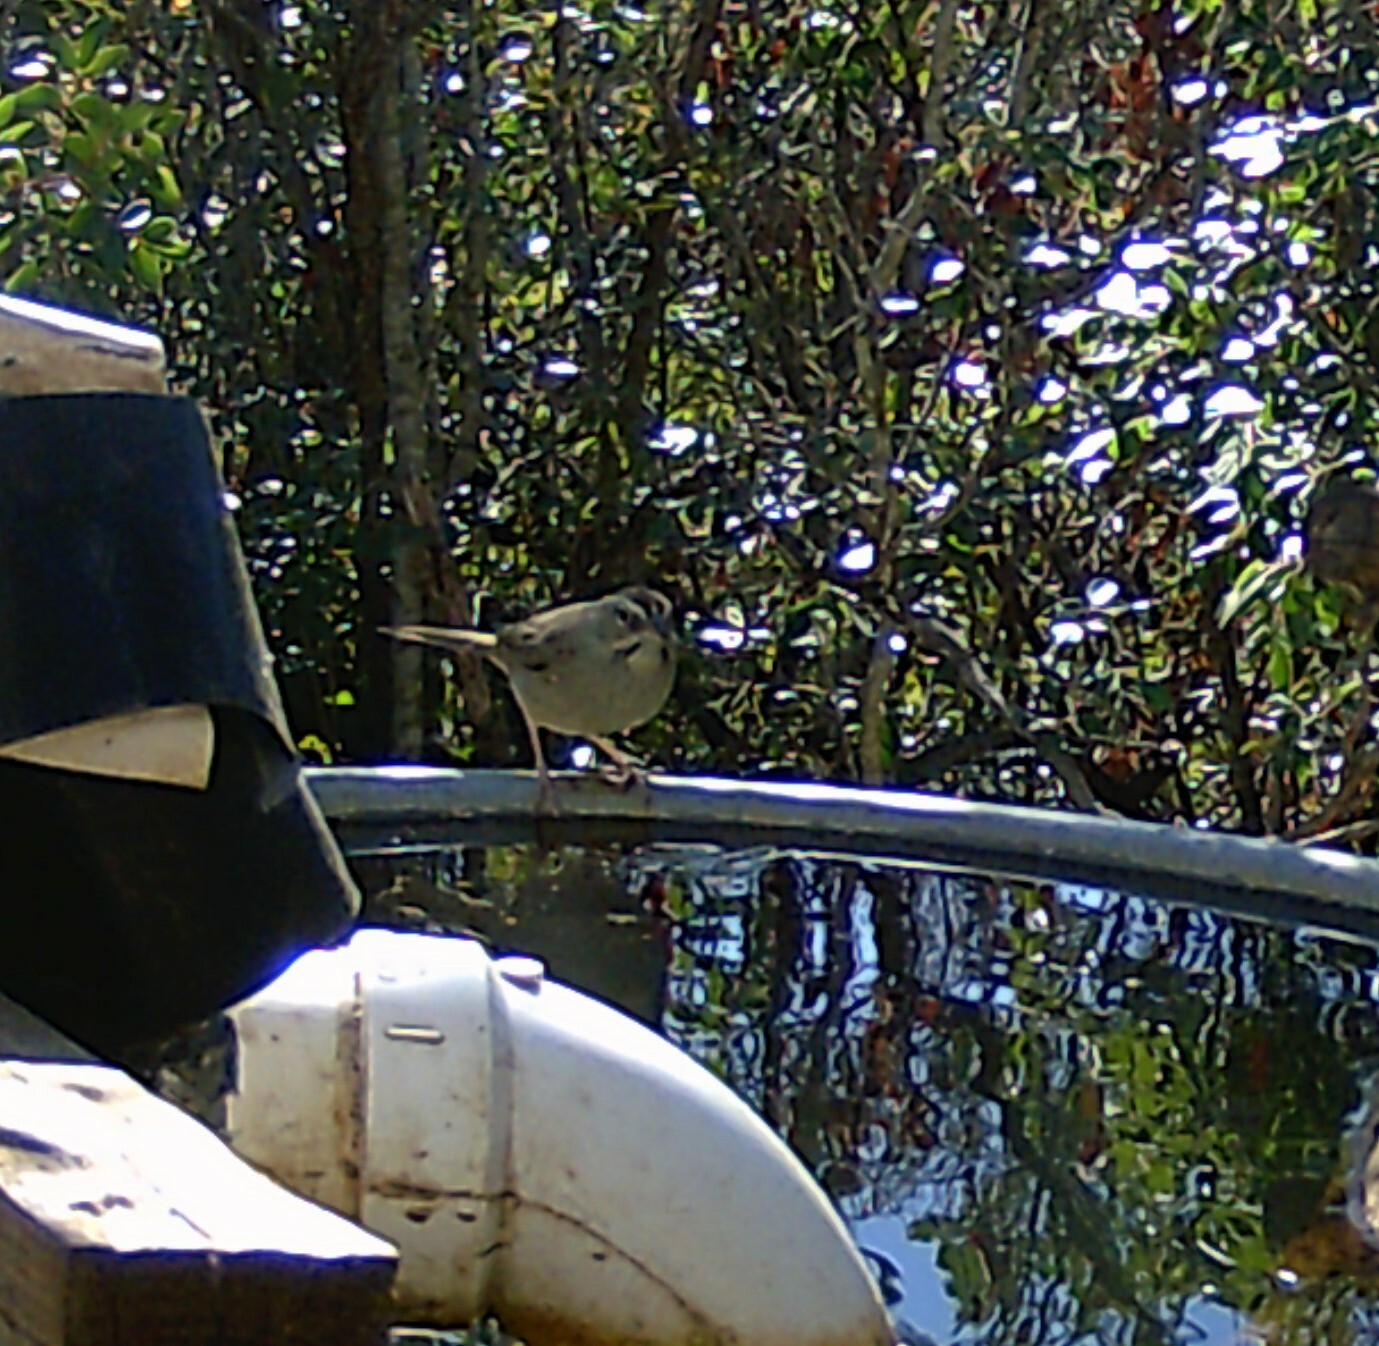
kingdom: Animalia
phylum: Chordata
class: Aves
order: Passeriformes
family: Passerellidae
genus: Aimophila
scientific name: Aimophila ruficeps
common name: Rufous-crowned sparrow
